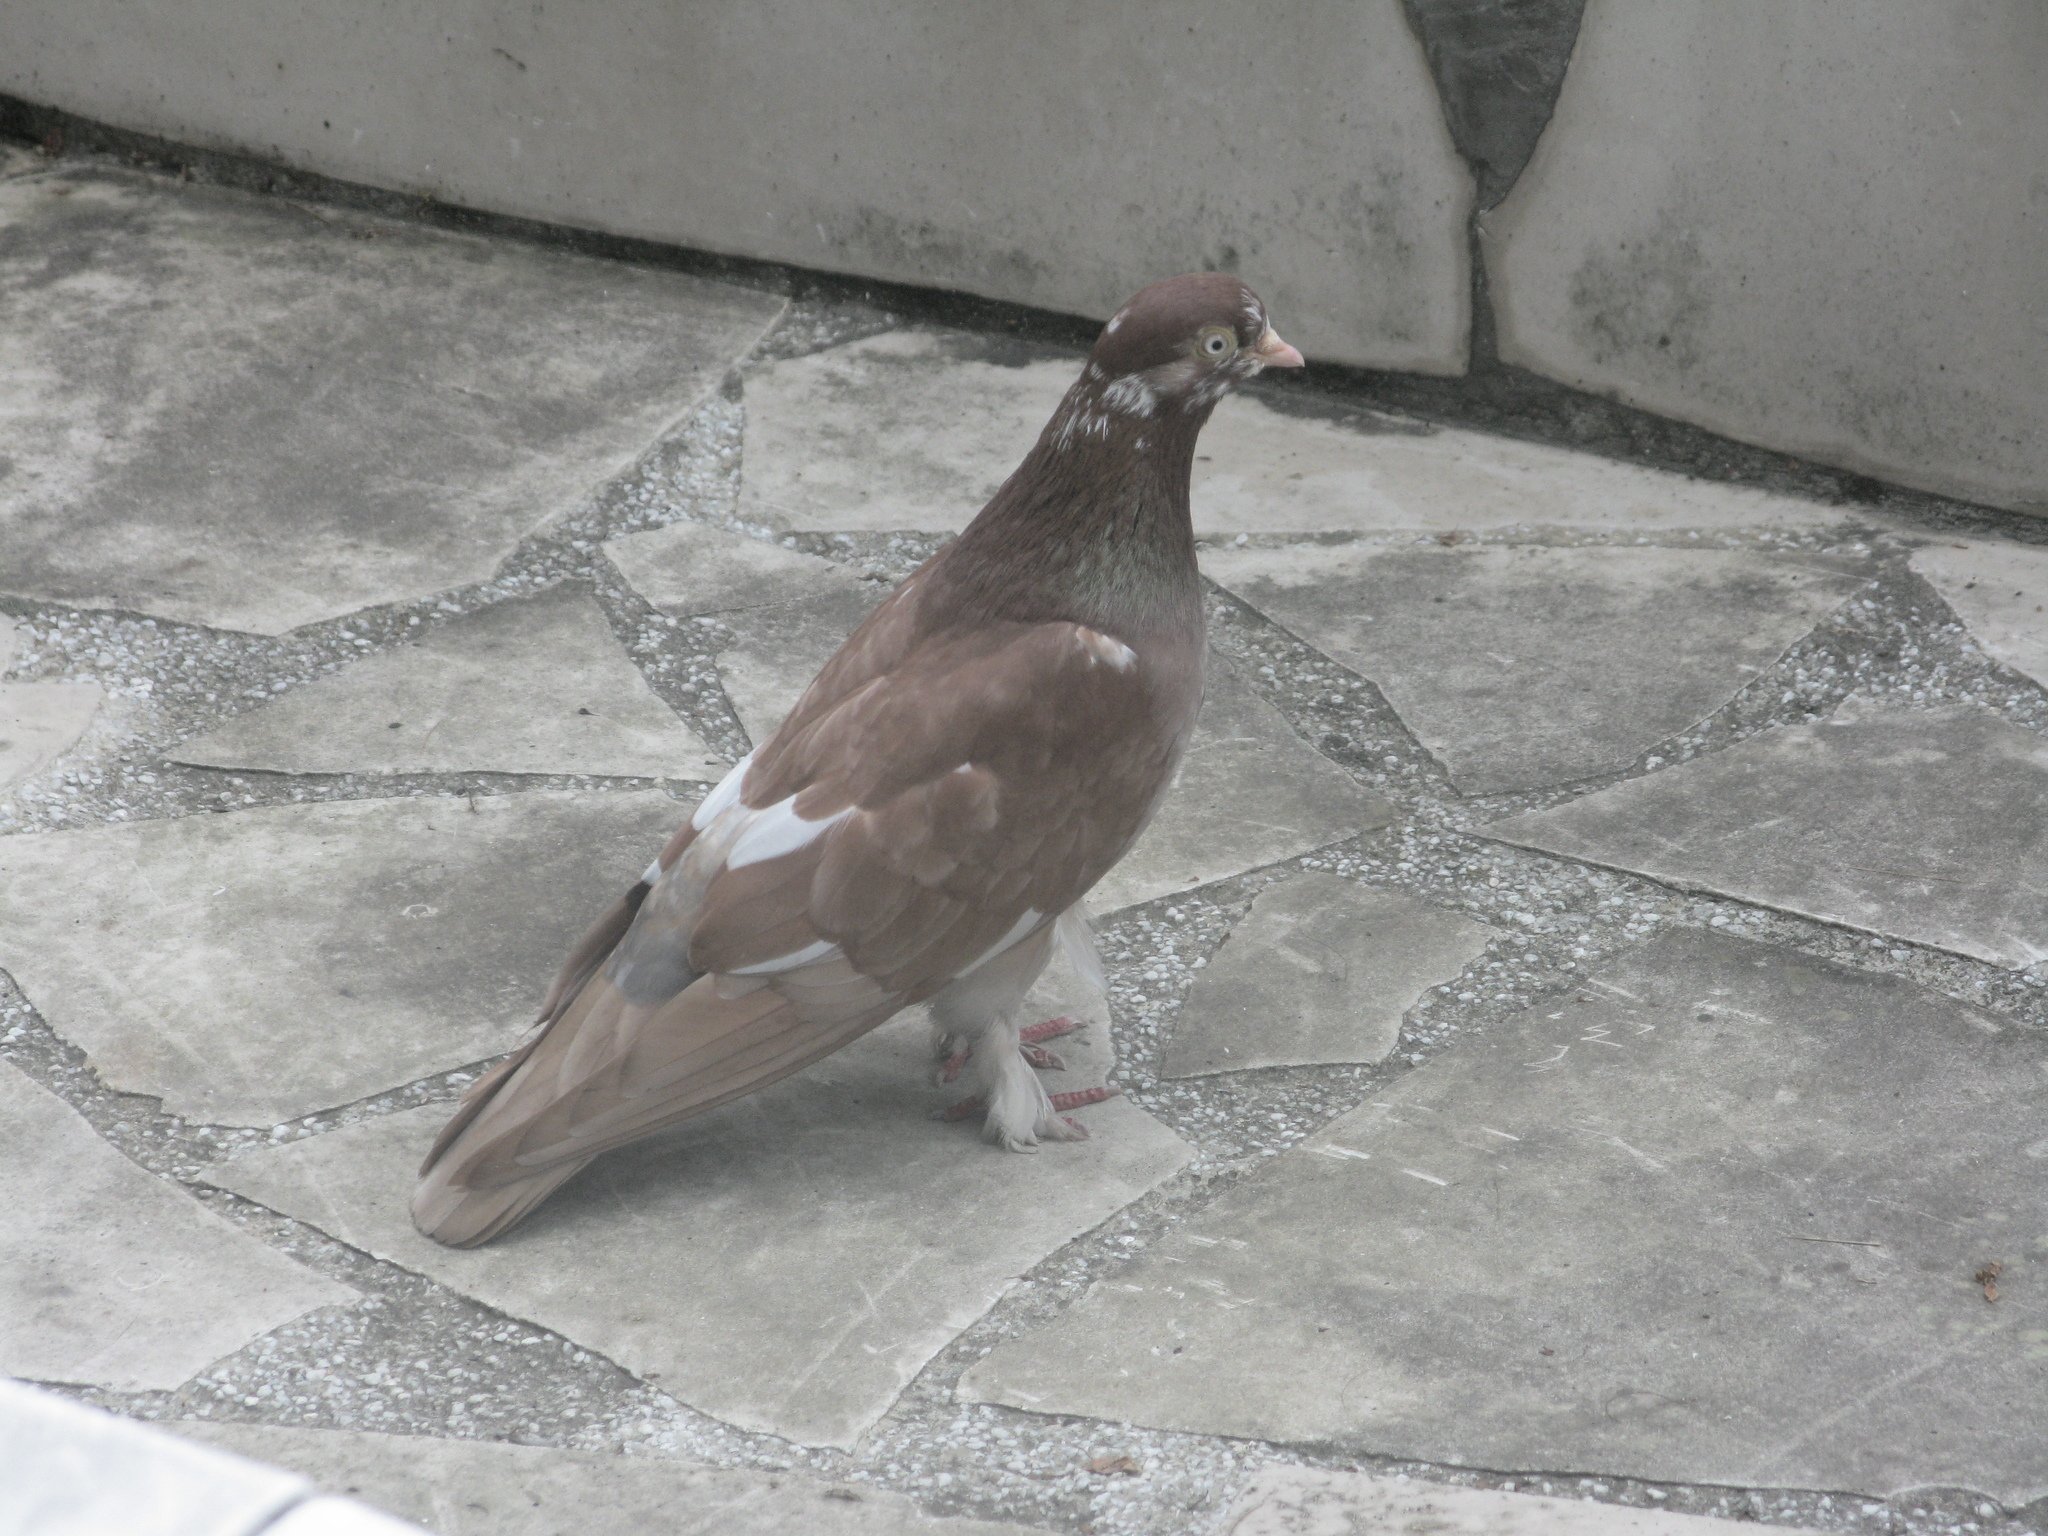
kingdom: Animalia
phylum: Chordata
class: Aves
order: Columbiformes
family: Columbidae
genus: Columba
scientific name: Columba livia
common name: Rock pigeon
